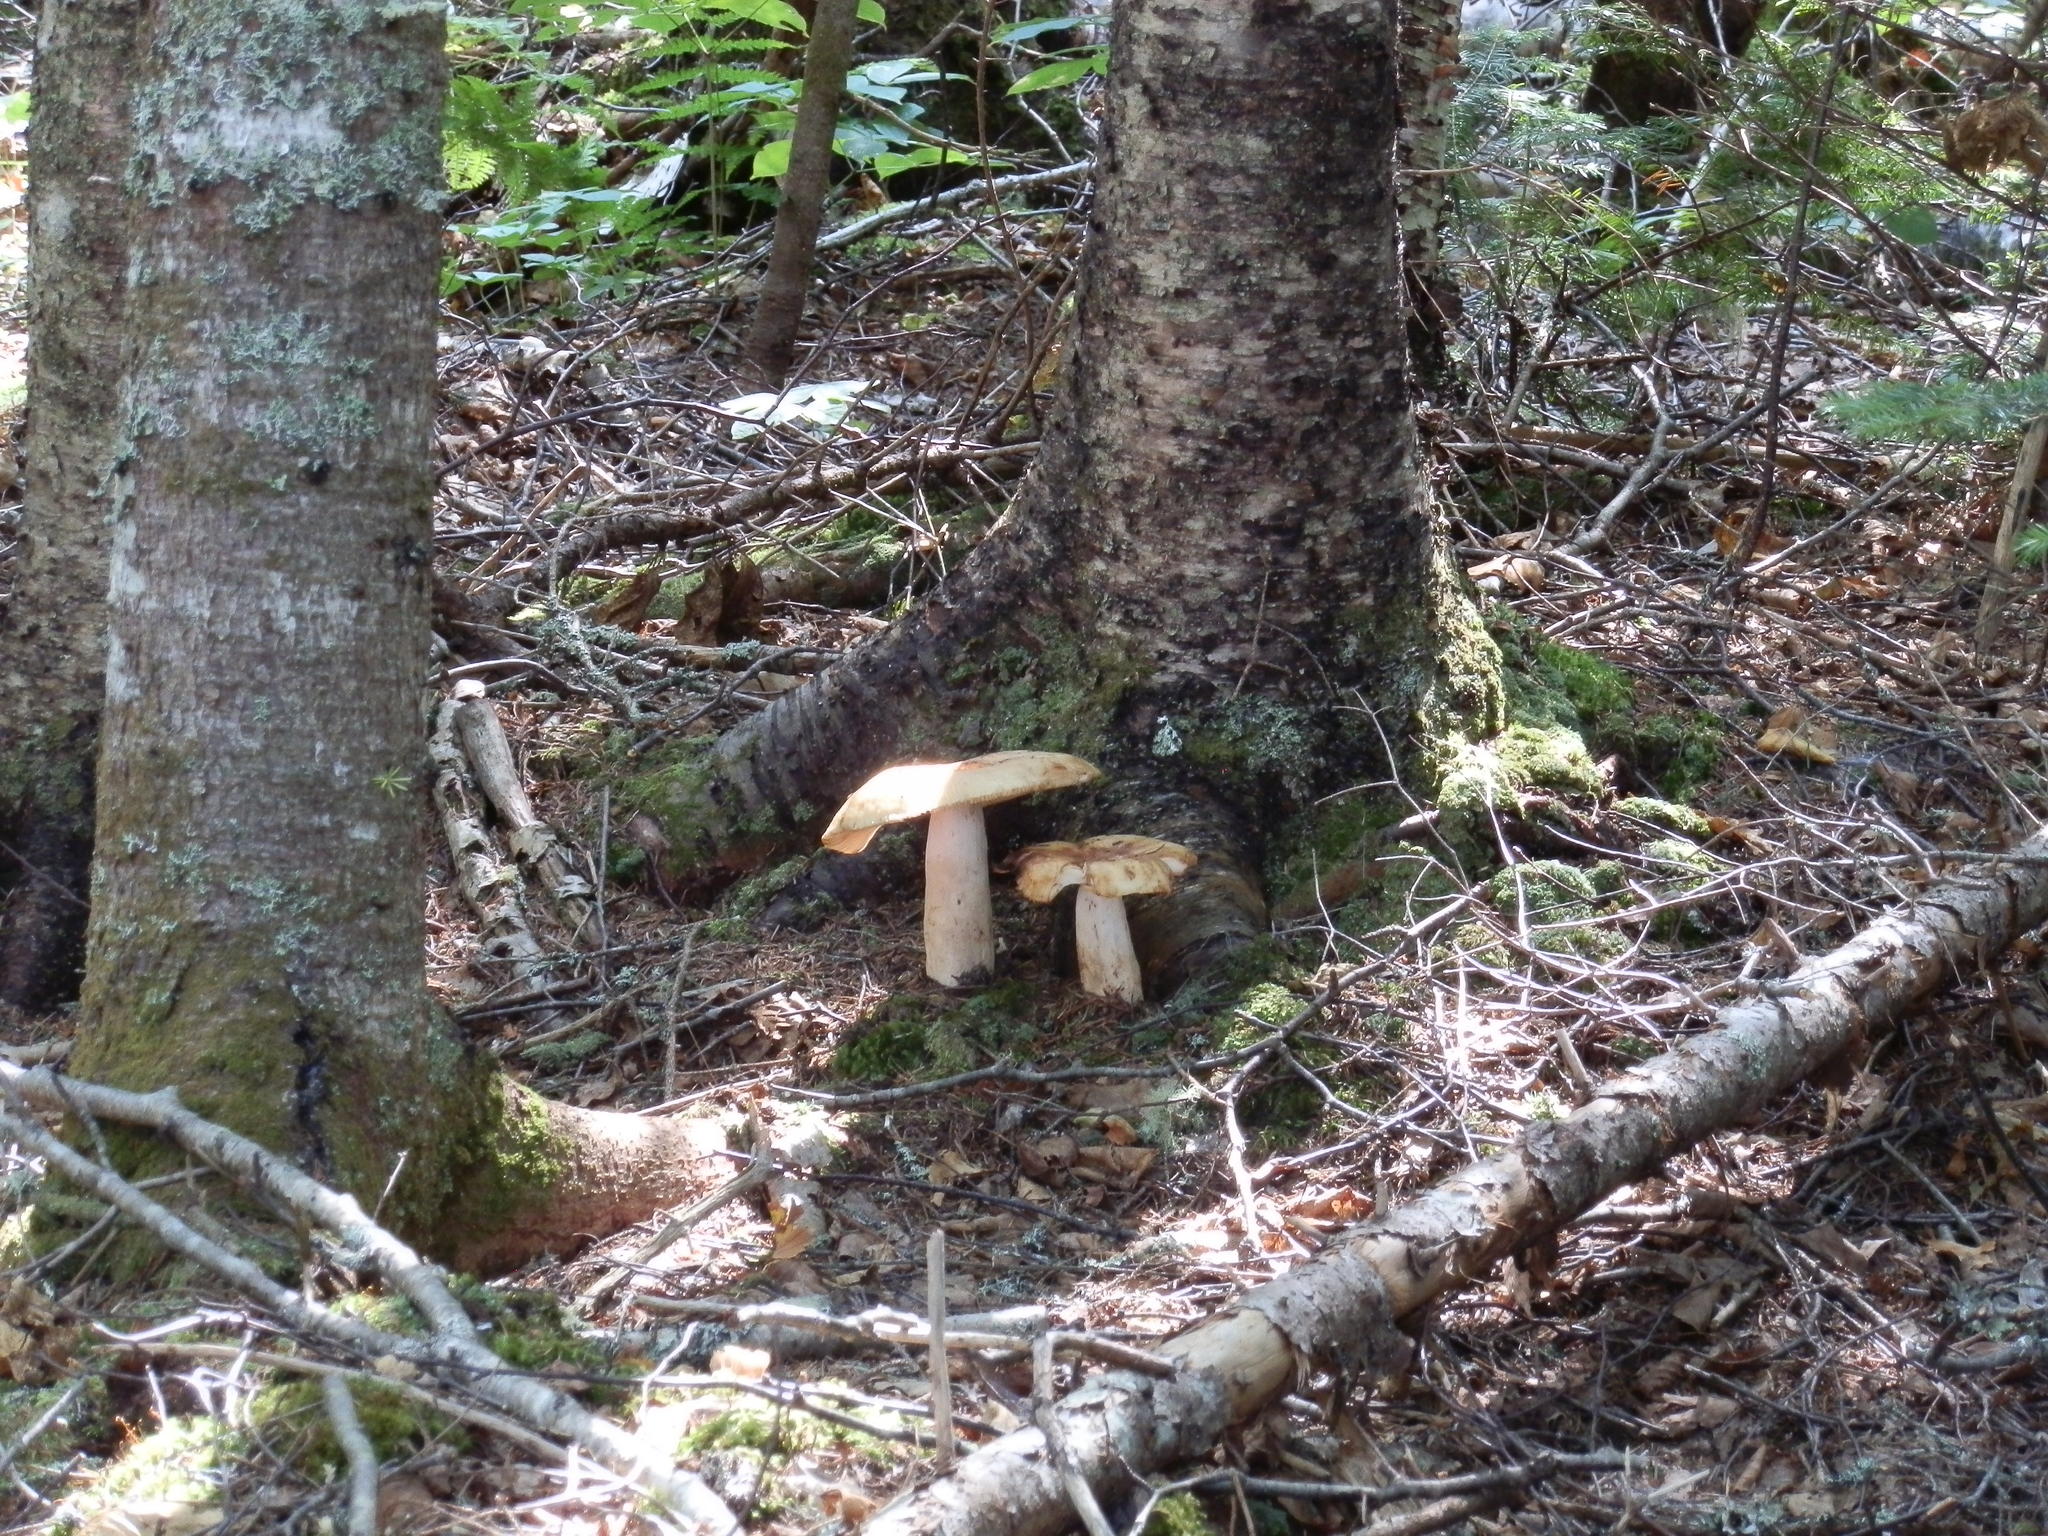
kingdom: Fungi
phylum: Basidiomycota
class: Agaricomycetes
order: Russulales
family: Russulaceae
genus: Russula
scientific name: Russula grata
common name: Bitter almond brittlegill
